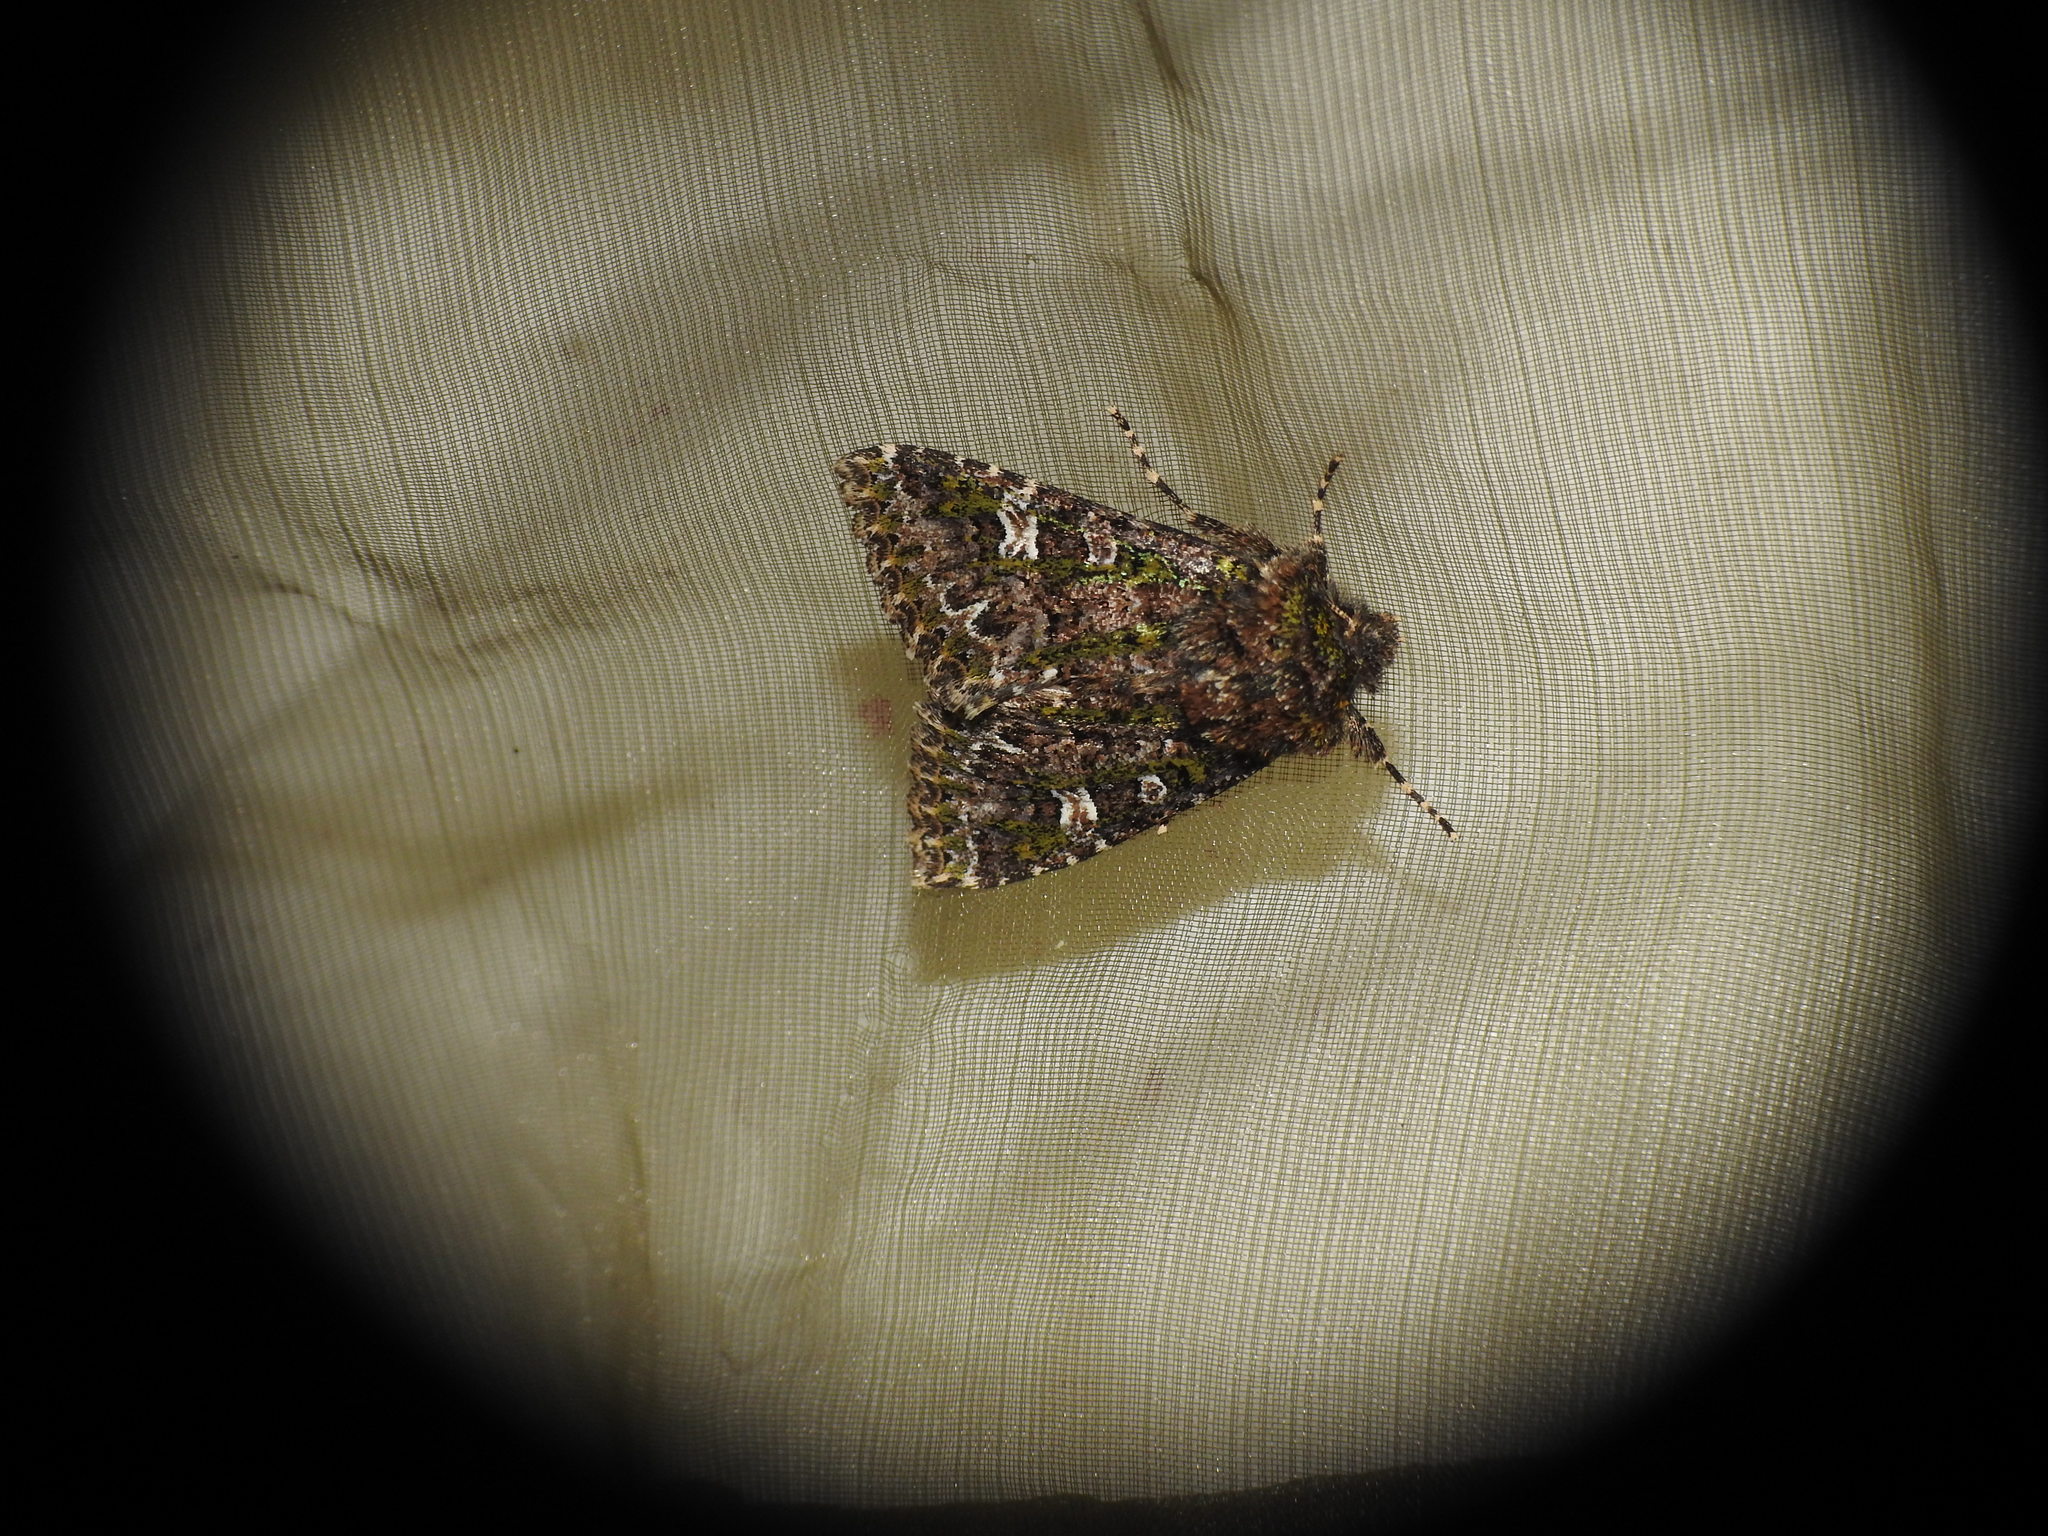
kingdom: Animalia
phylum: Arthropoda
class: Insecta
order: Lepidoptera
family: Noctuidae
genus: Valeria
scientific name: Valeria jaspidea
